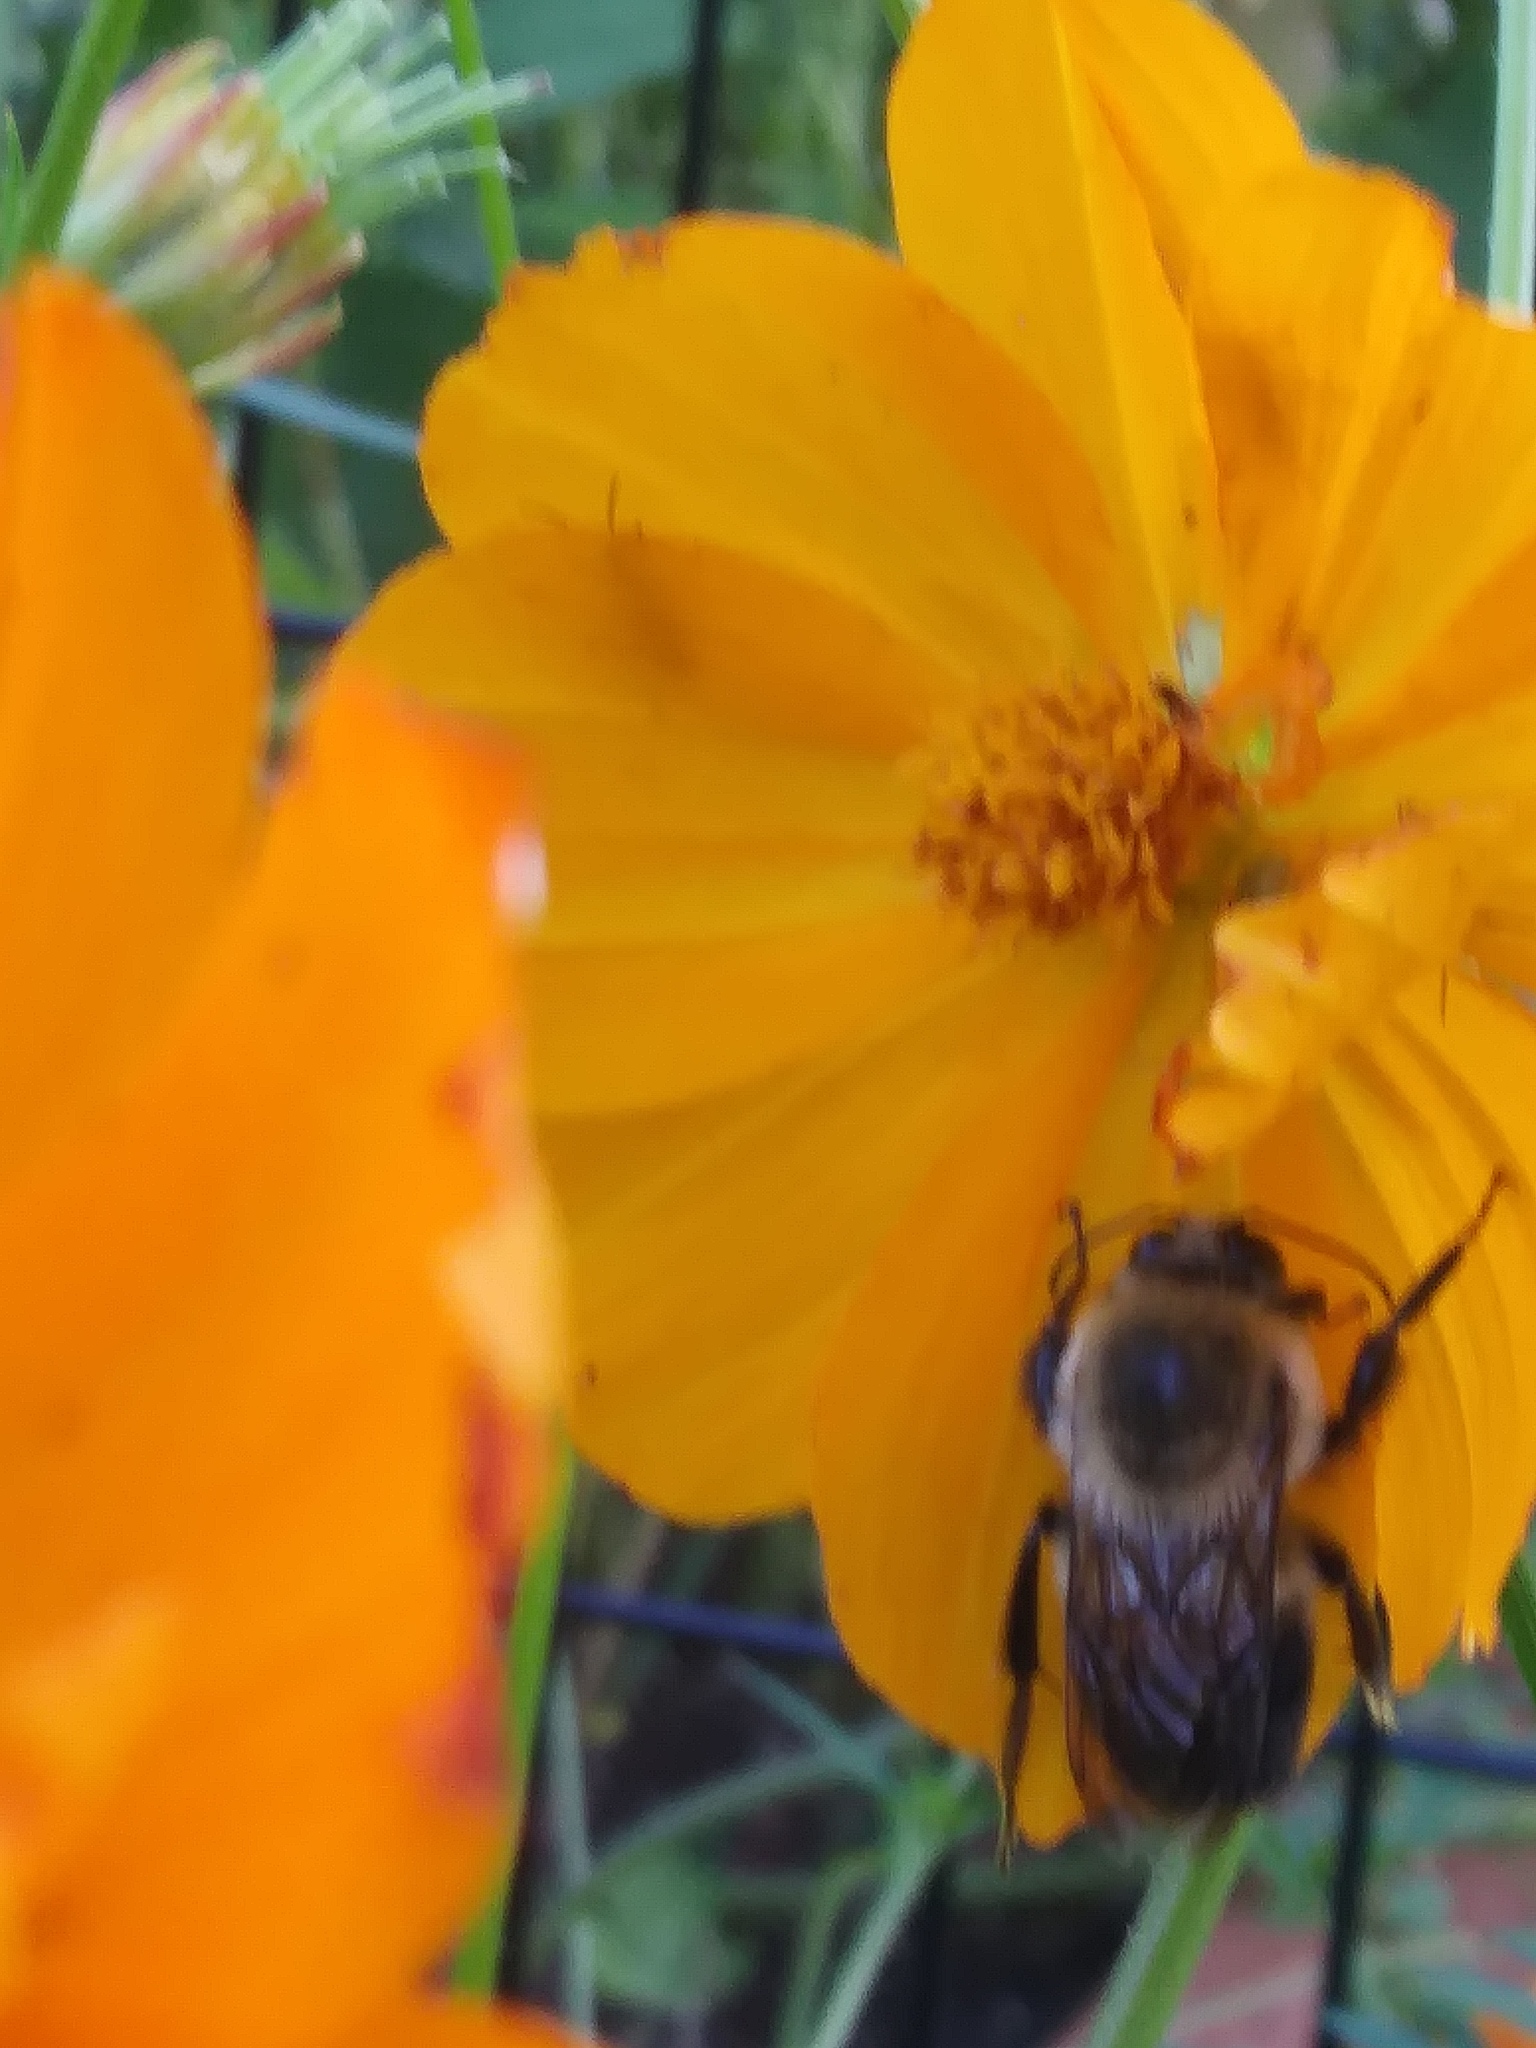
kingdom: Animalia
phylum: Arthropoda
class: Insecta
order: Hymenoptera
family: Apidae
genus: Bombus
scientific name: Bombus griseocollis
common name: Brown-belted bumble bee
